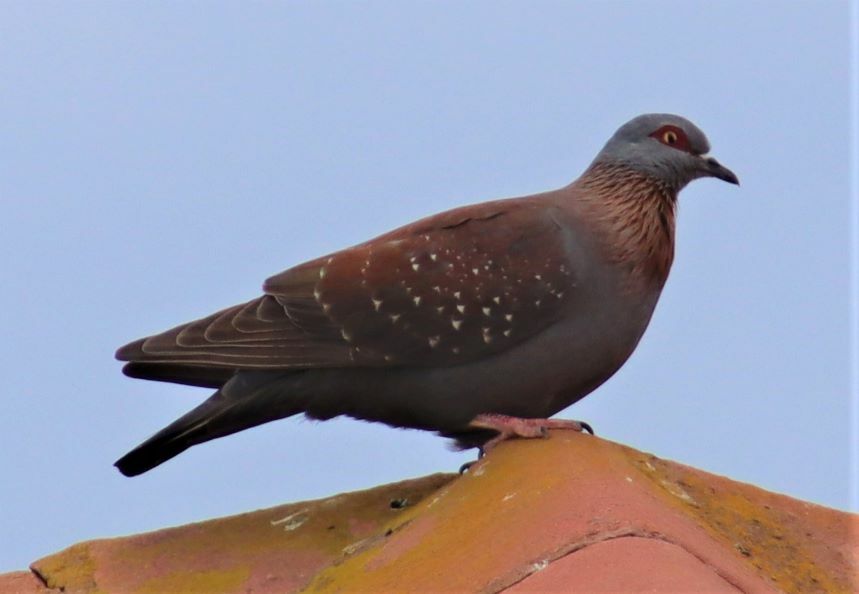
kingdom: Animalia
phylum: Chordata
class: Aves
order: Columbiformes
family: Columbidae
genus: Columba
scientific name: Columba guinea
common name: Speckled pigeon
